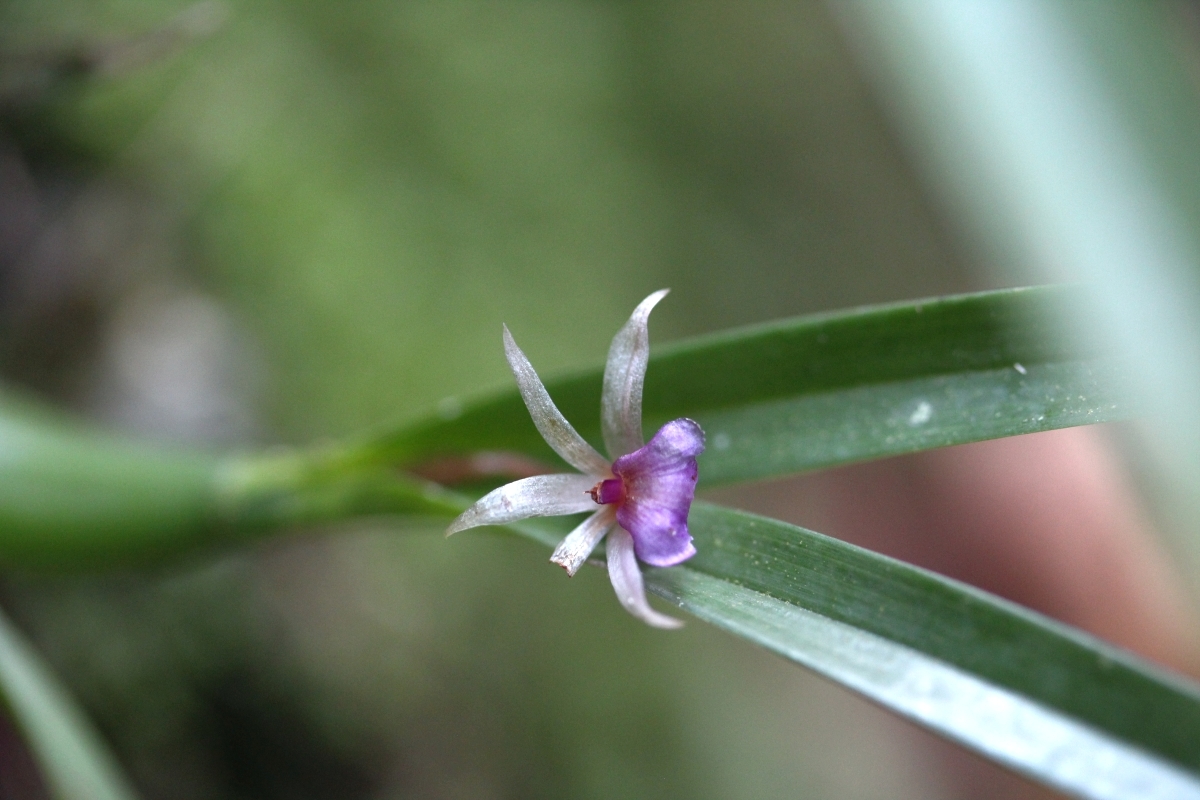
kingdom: Plantae
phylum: Tracheophyta
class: Liliopsida
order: Asparagales
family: Orchidaceae
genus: Scaphyglottis
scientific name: Scaphyglottis stellata
